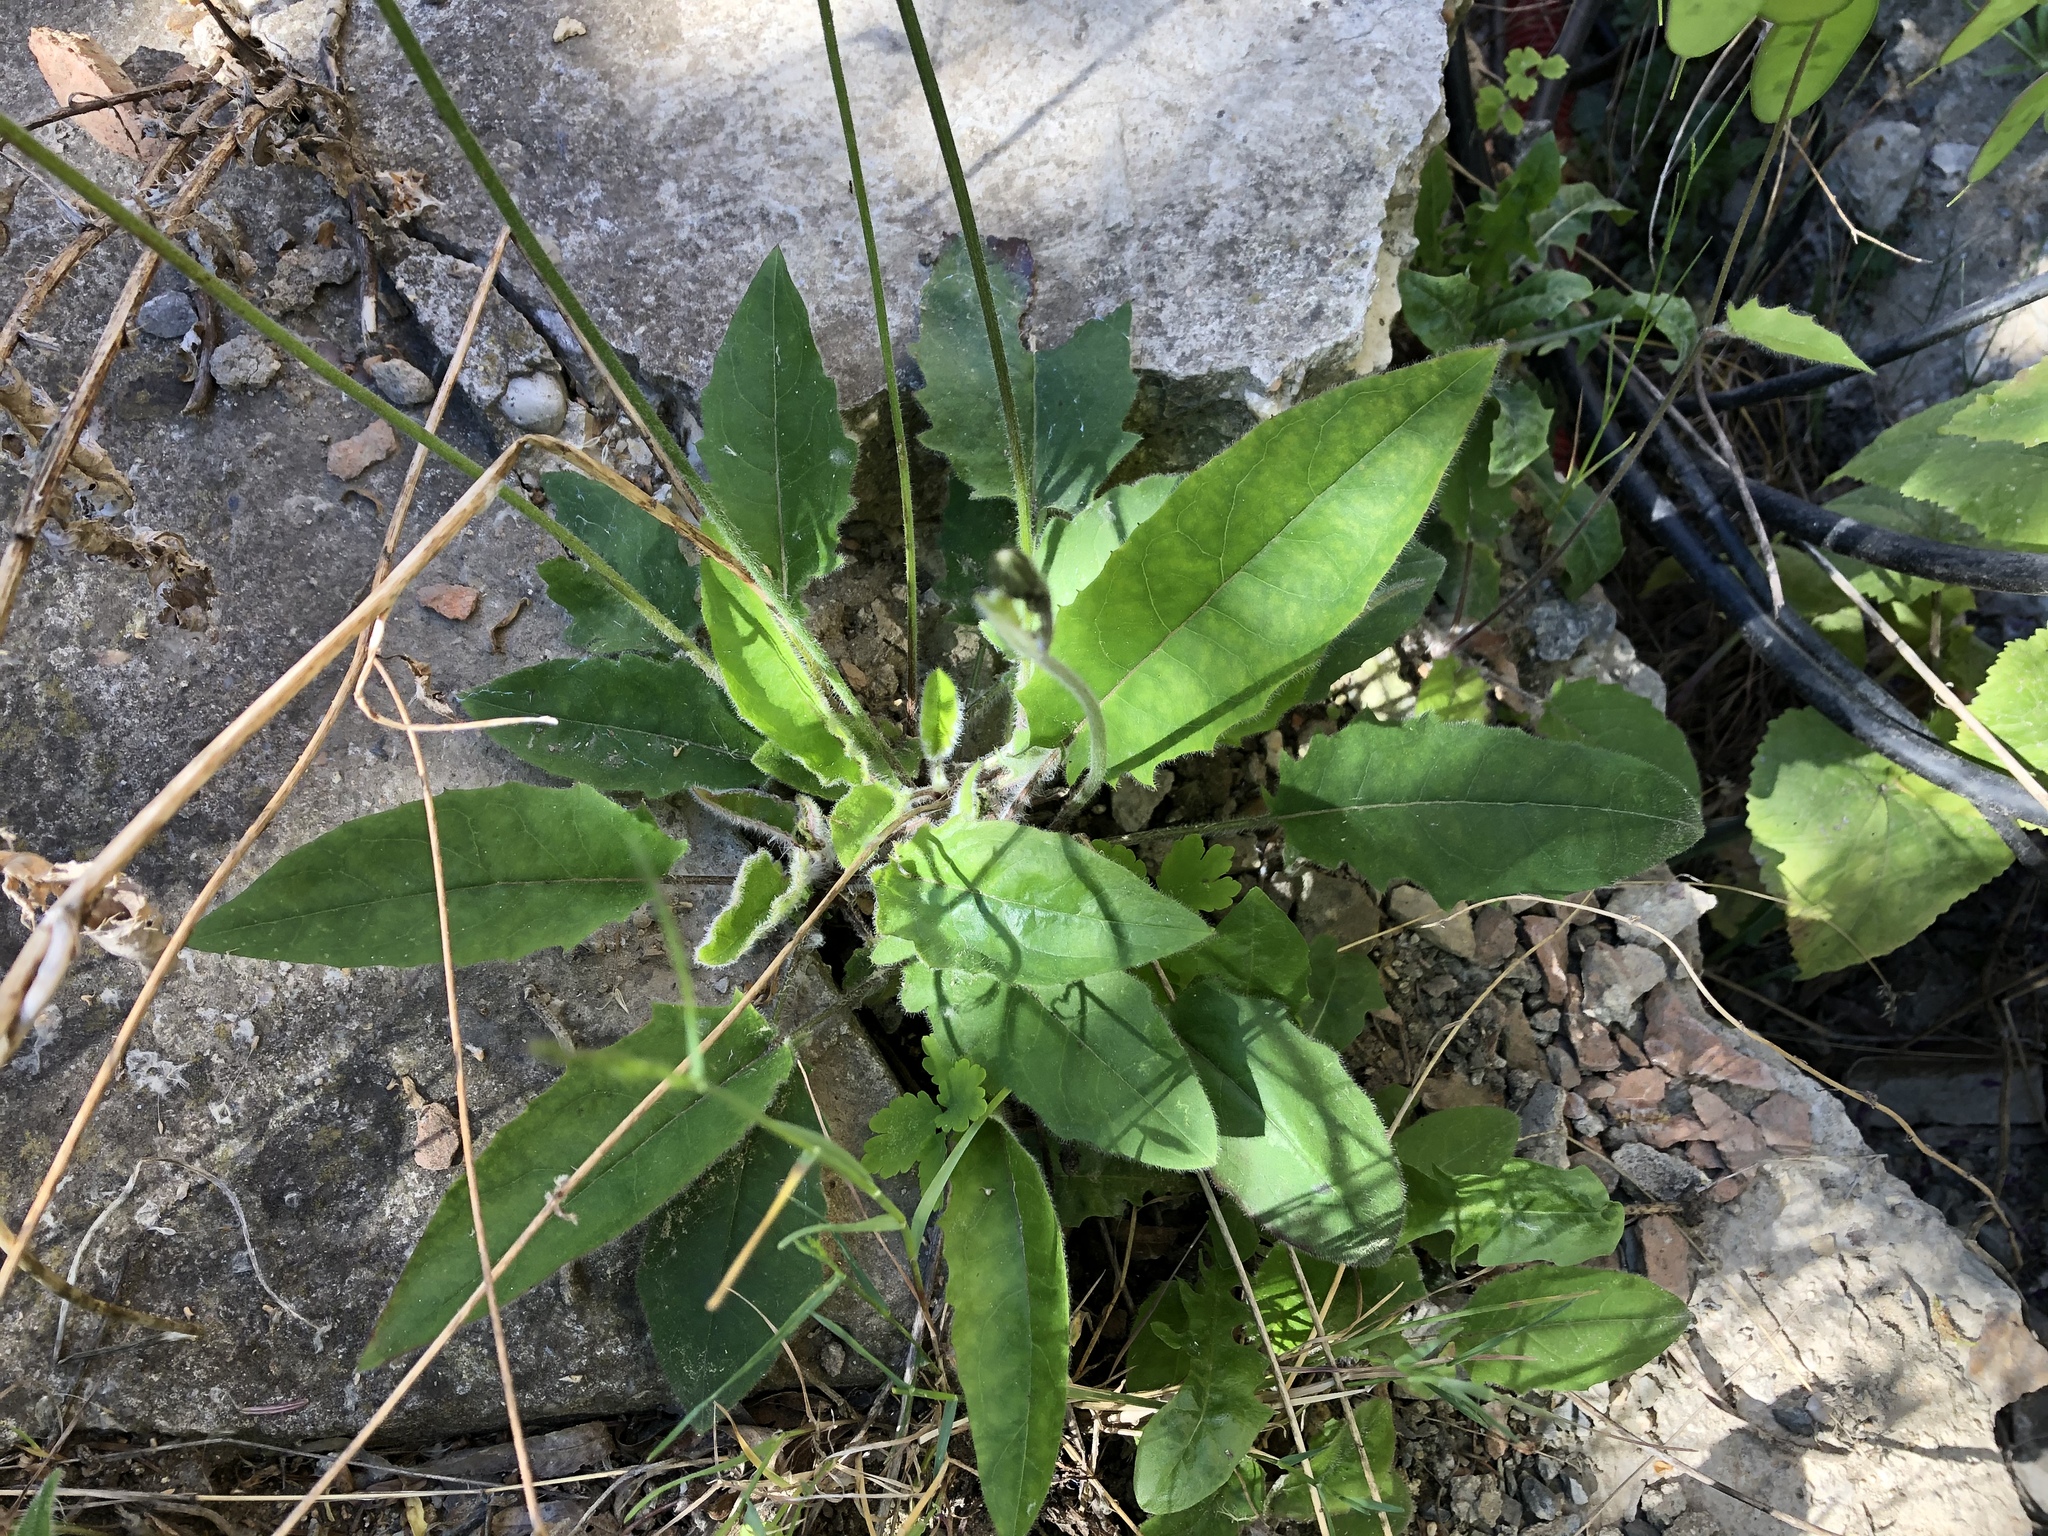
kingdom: Plantae
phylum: Tracheophyta
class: Magnoliopsida
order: Asterales
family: Asteraceae
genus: Hieracium
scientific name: Hieracium murorum
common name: Wall hawkweed
